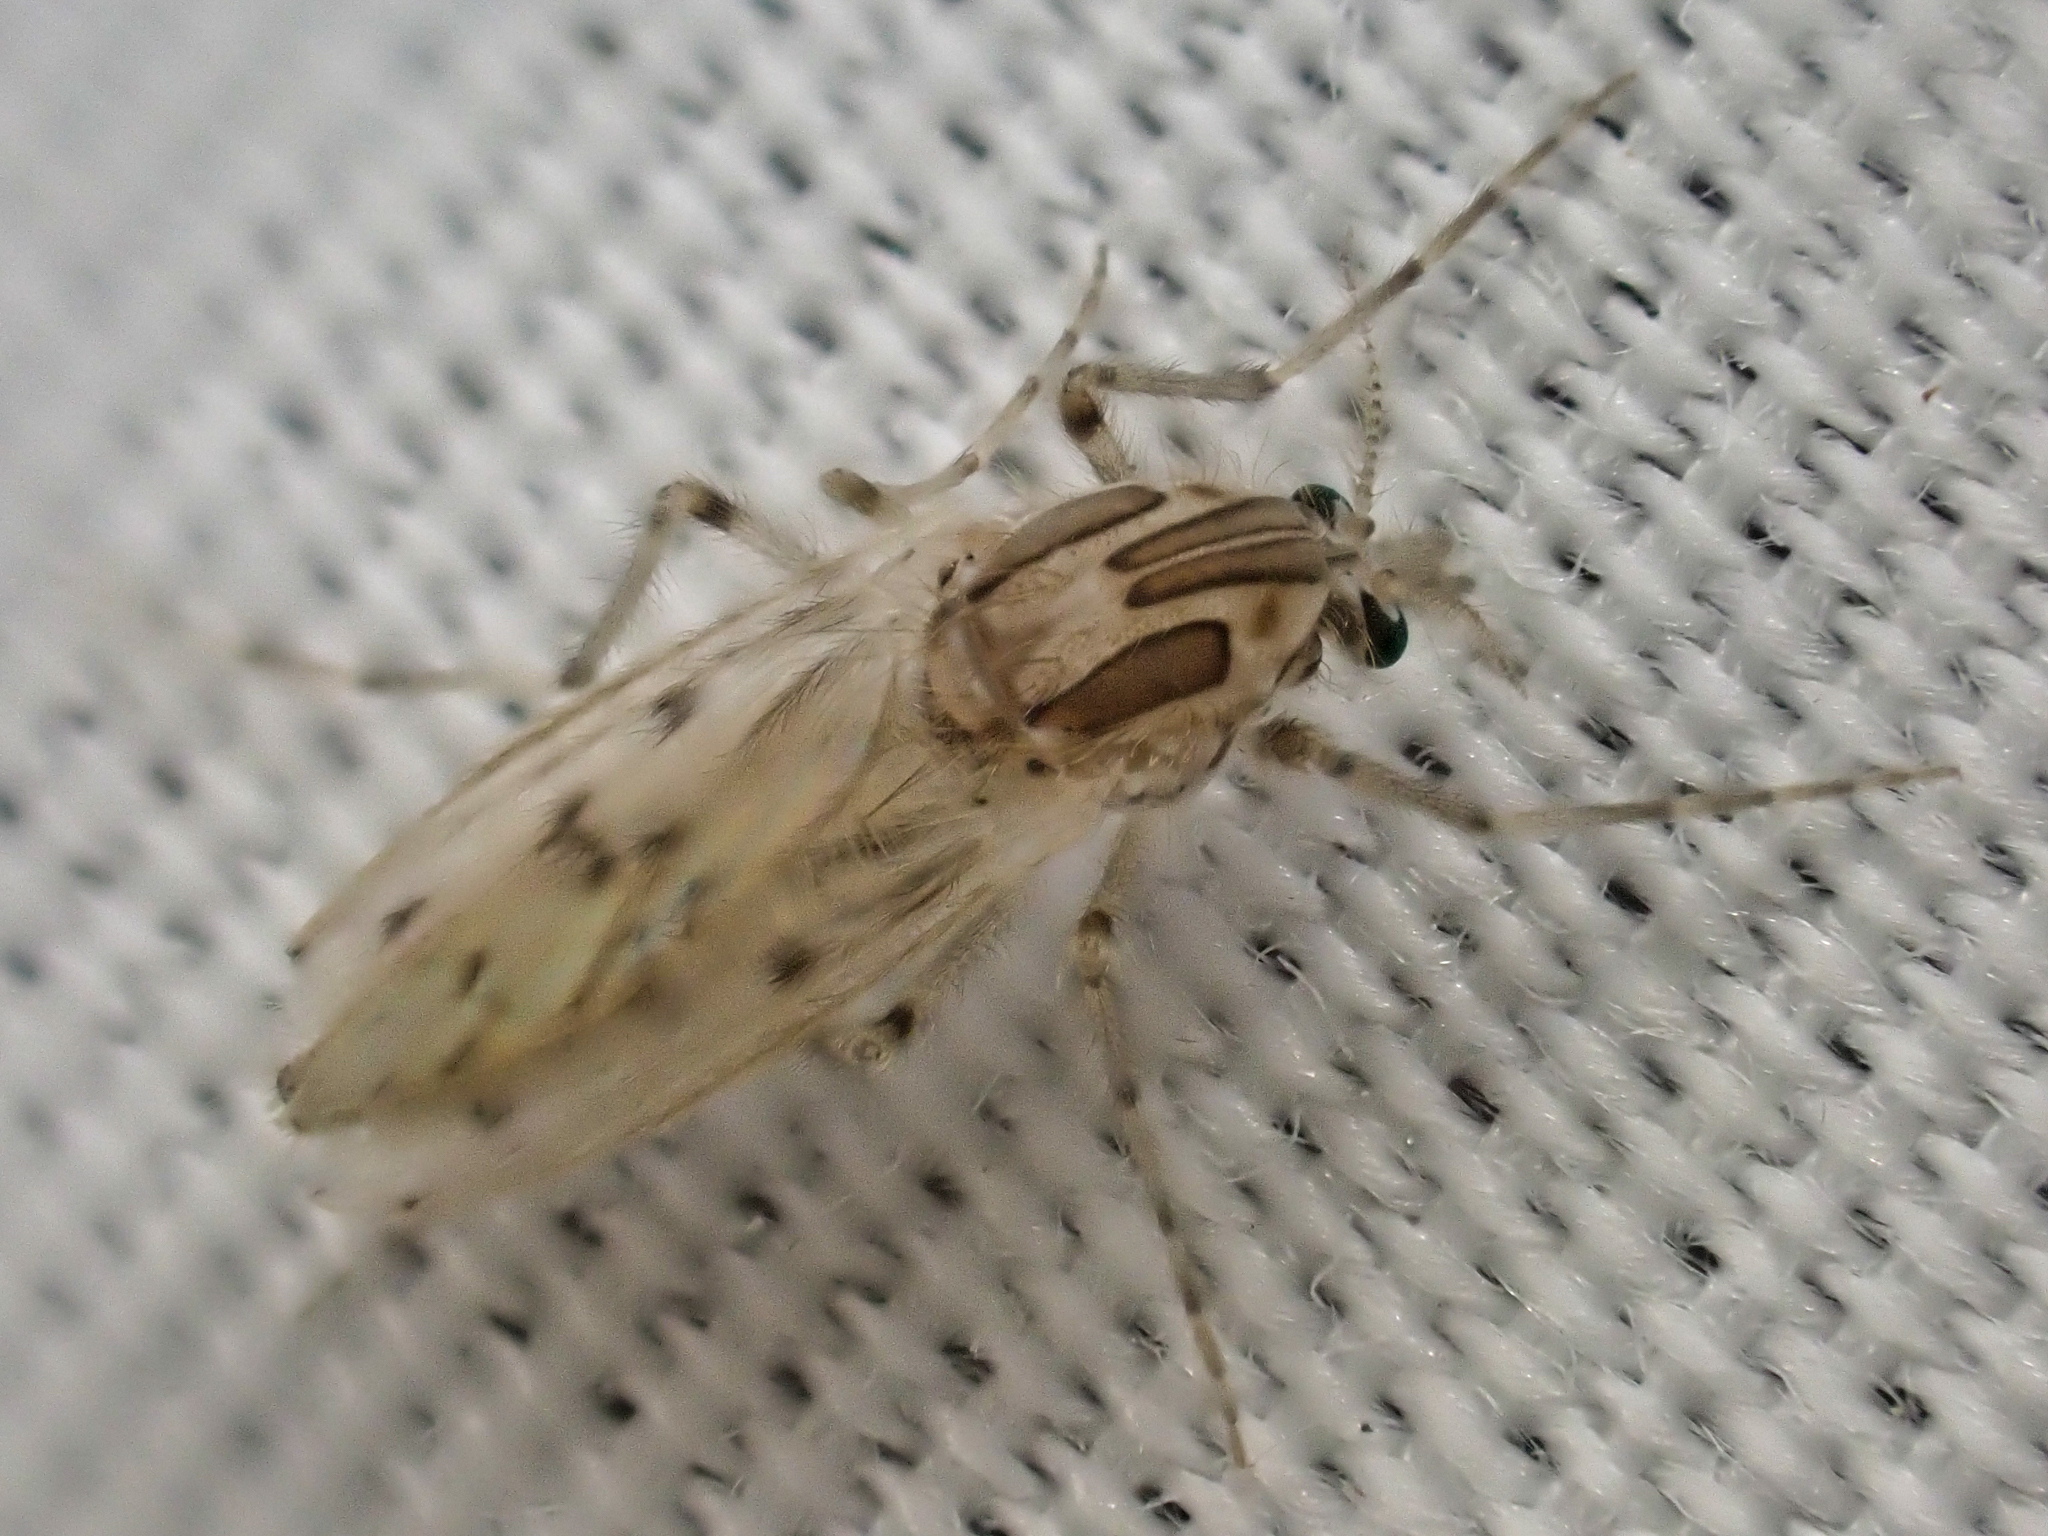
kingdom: Animalia
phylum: Arthropoda
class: Insecta
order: Diptera
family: Chaoboridae
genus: Chaoborus
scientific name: Chaoborus astictopus
